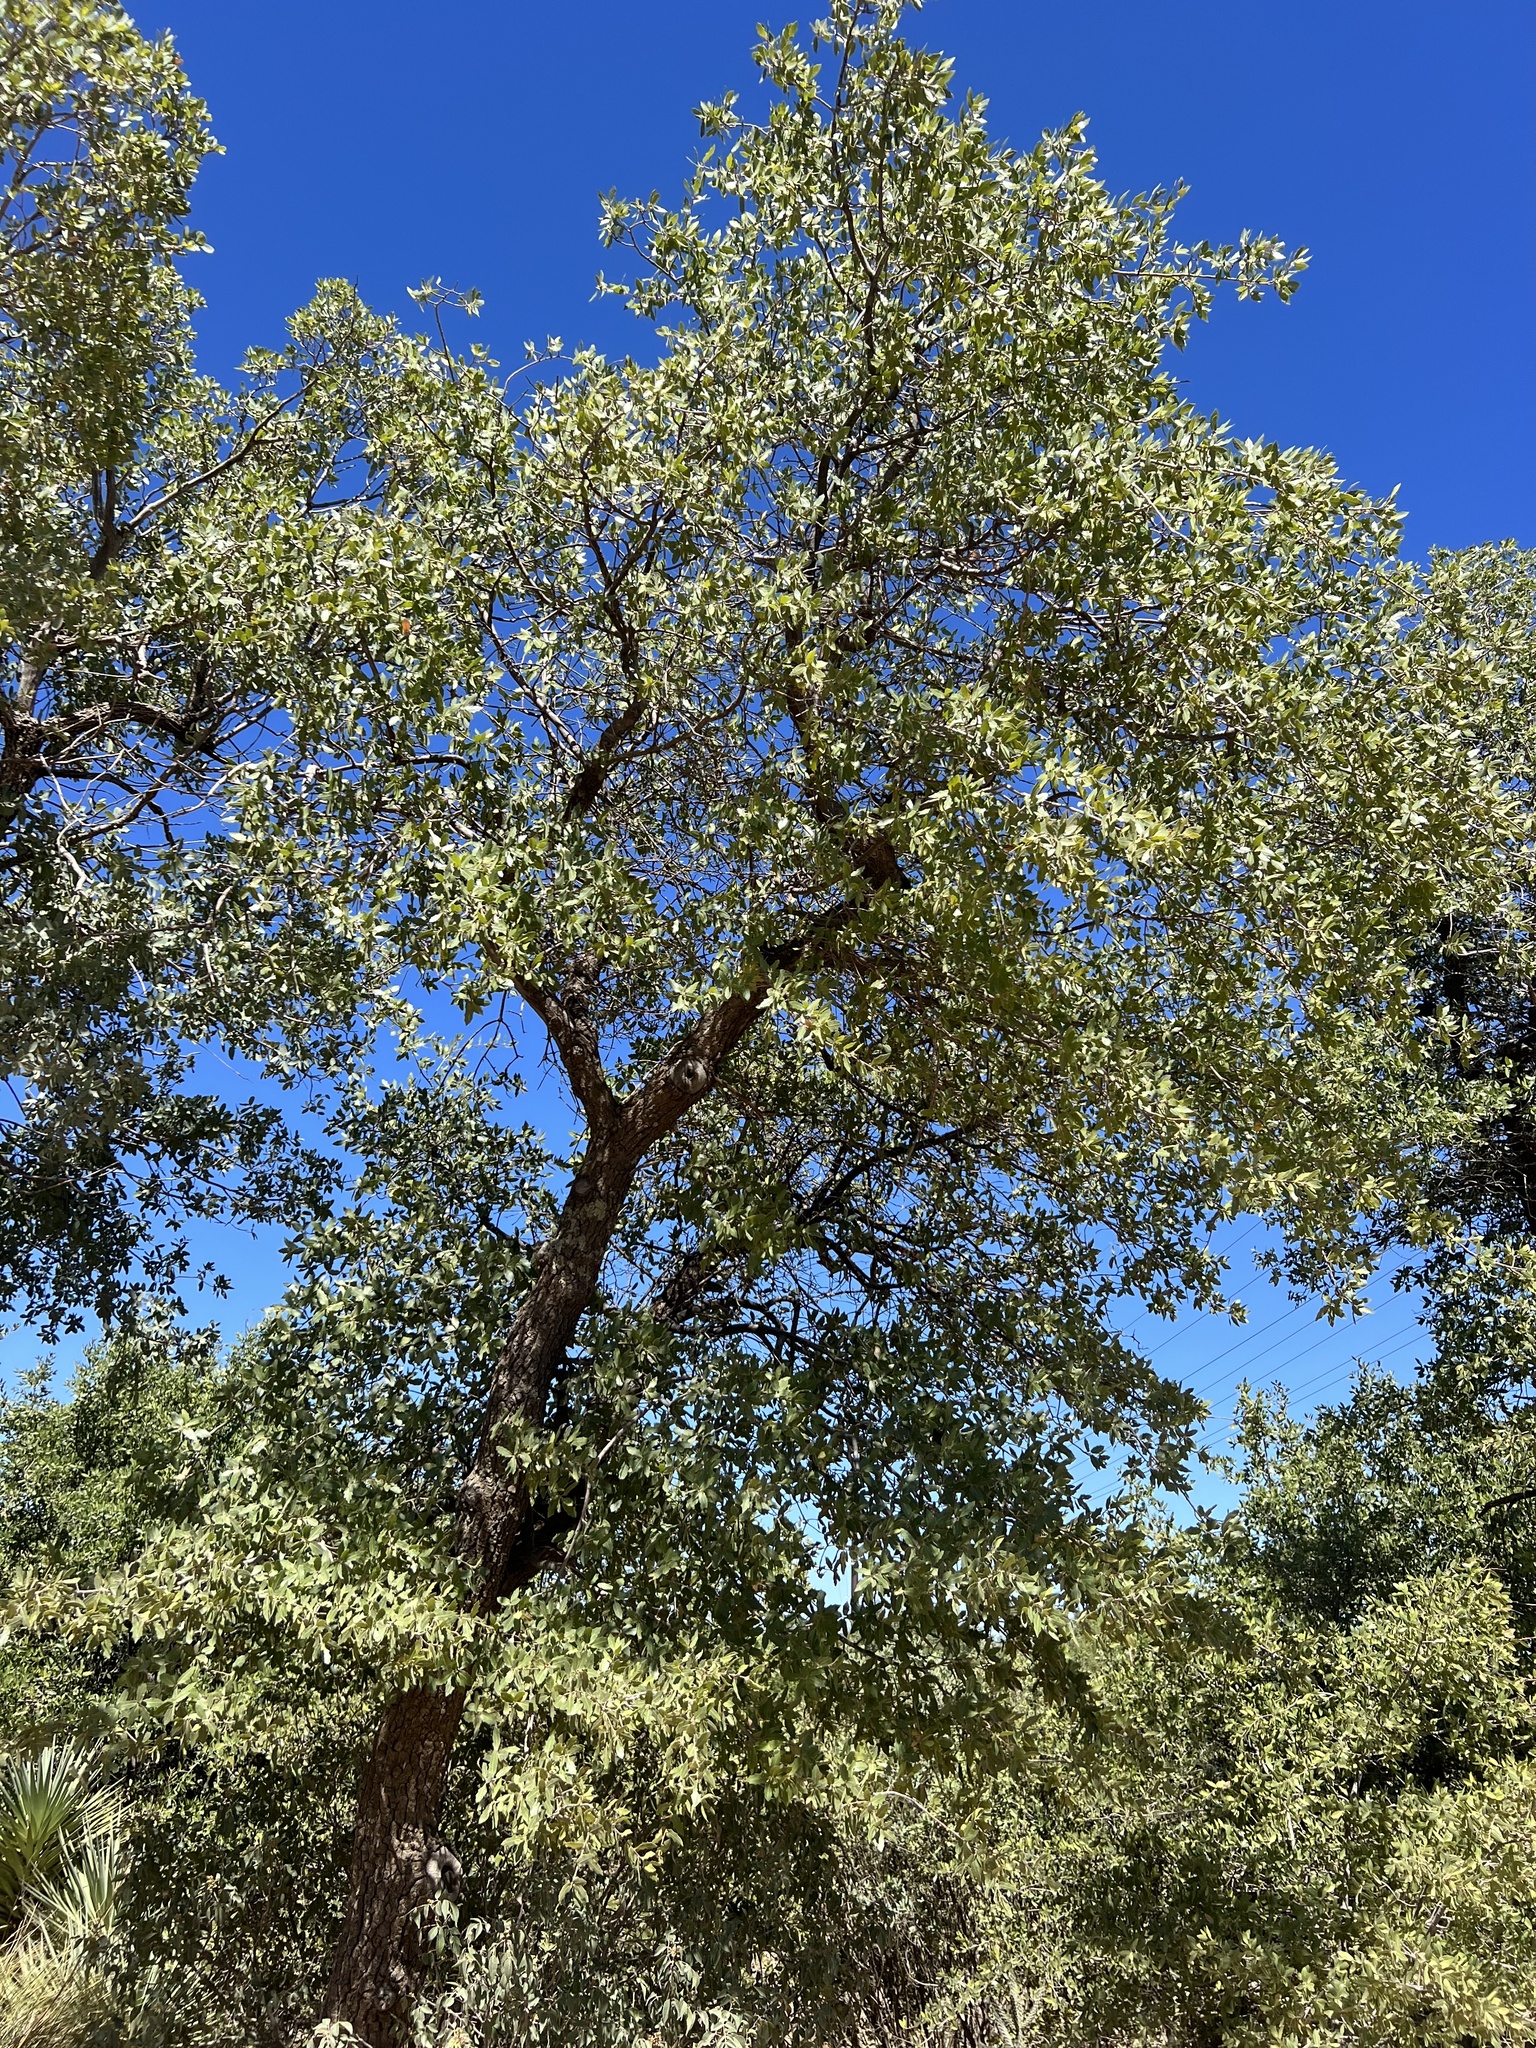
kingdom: Plantae
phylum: Tracheophyta
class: Magnoliopsida
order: Fagales
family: Fagaceae
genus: Quercus
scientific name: Quercus emoryi
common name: Emory oak
